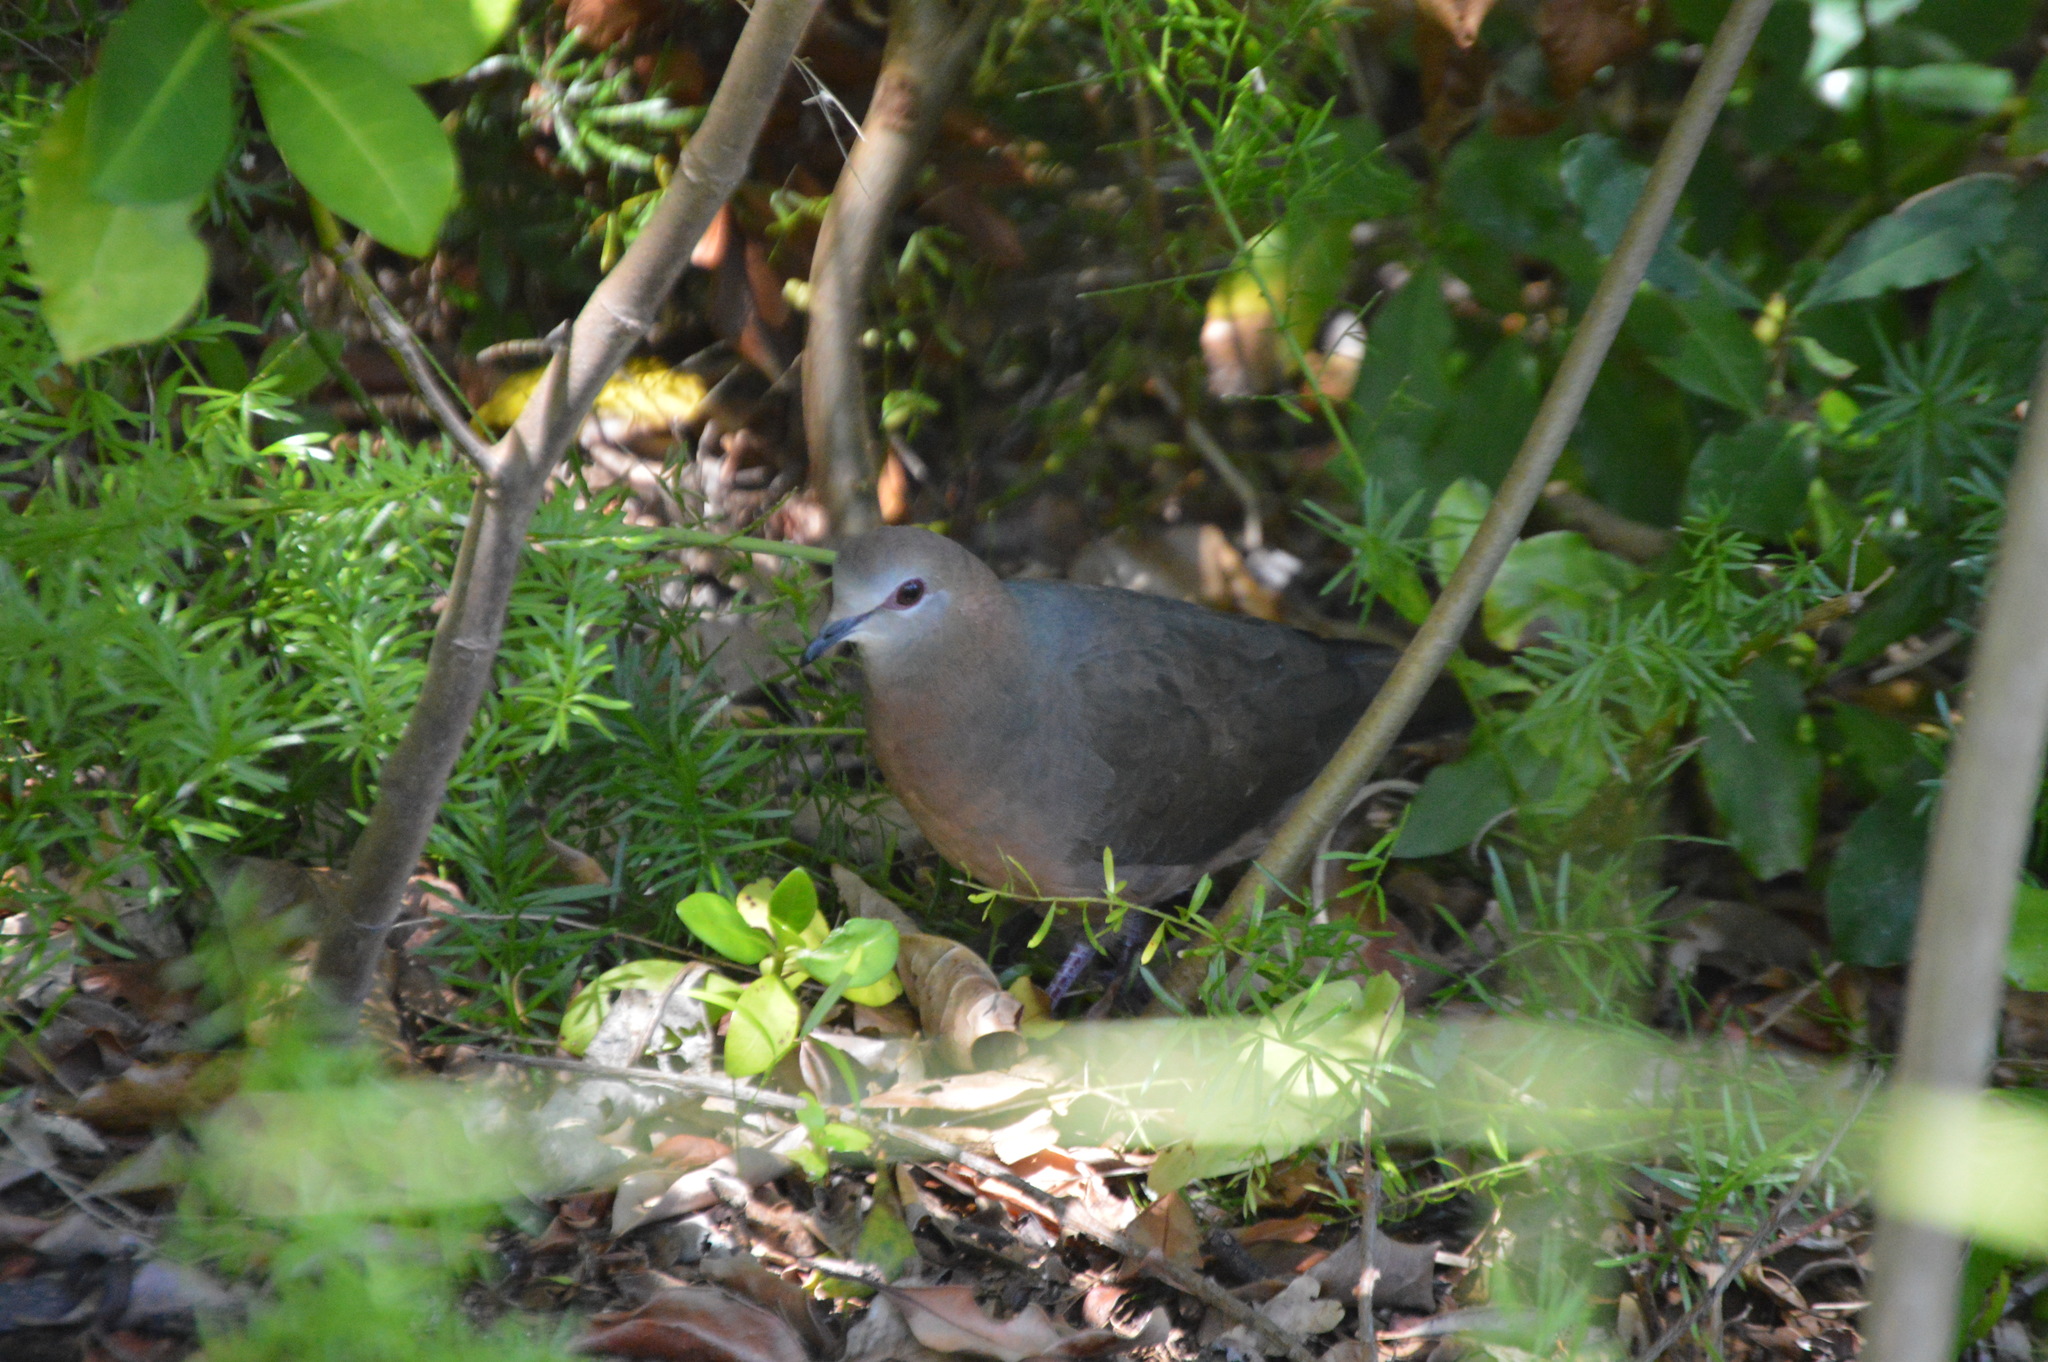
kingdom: Animalia
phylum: Chordata
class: Aves
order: Columbiformes
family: Columbidae
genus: Columba
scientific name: Columba larvata
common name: Lemon dove
